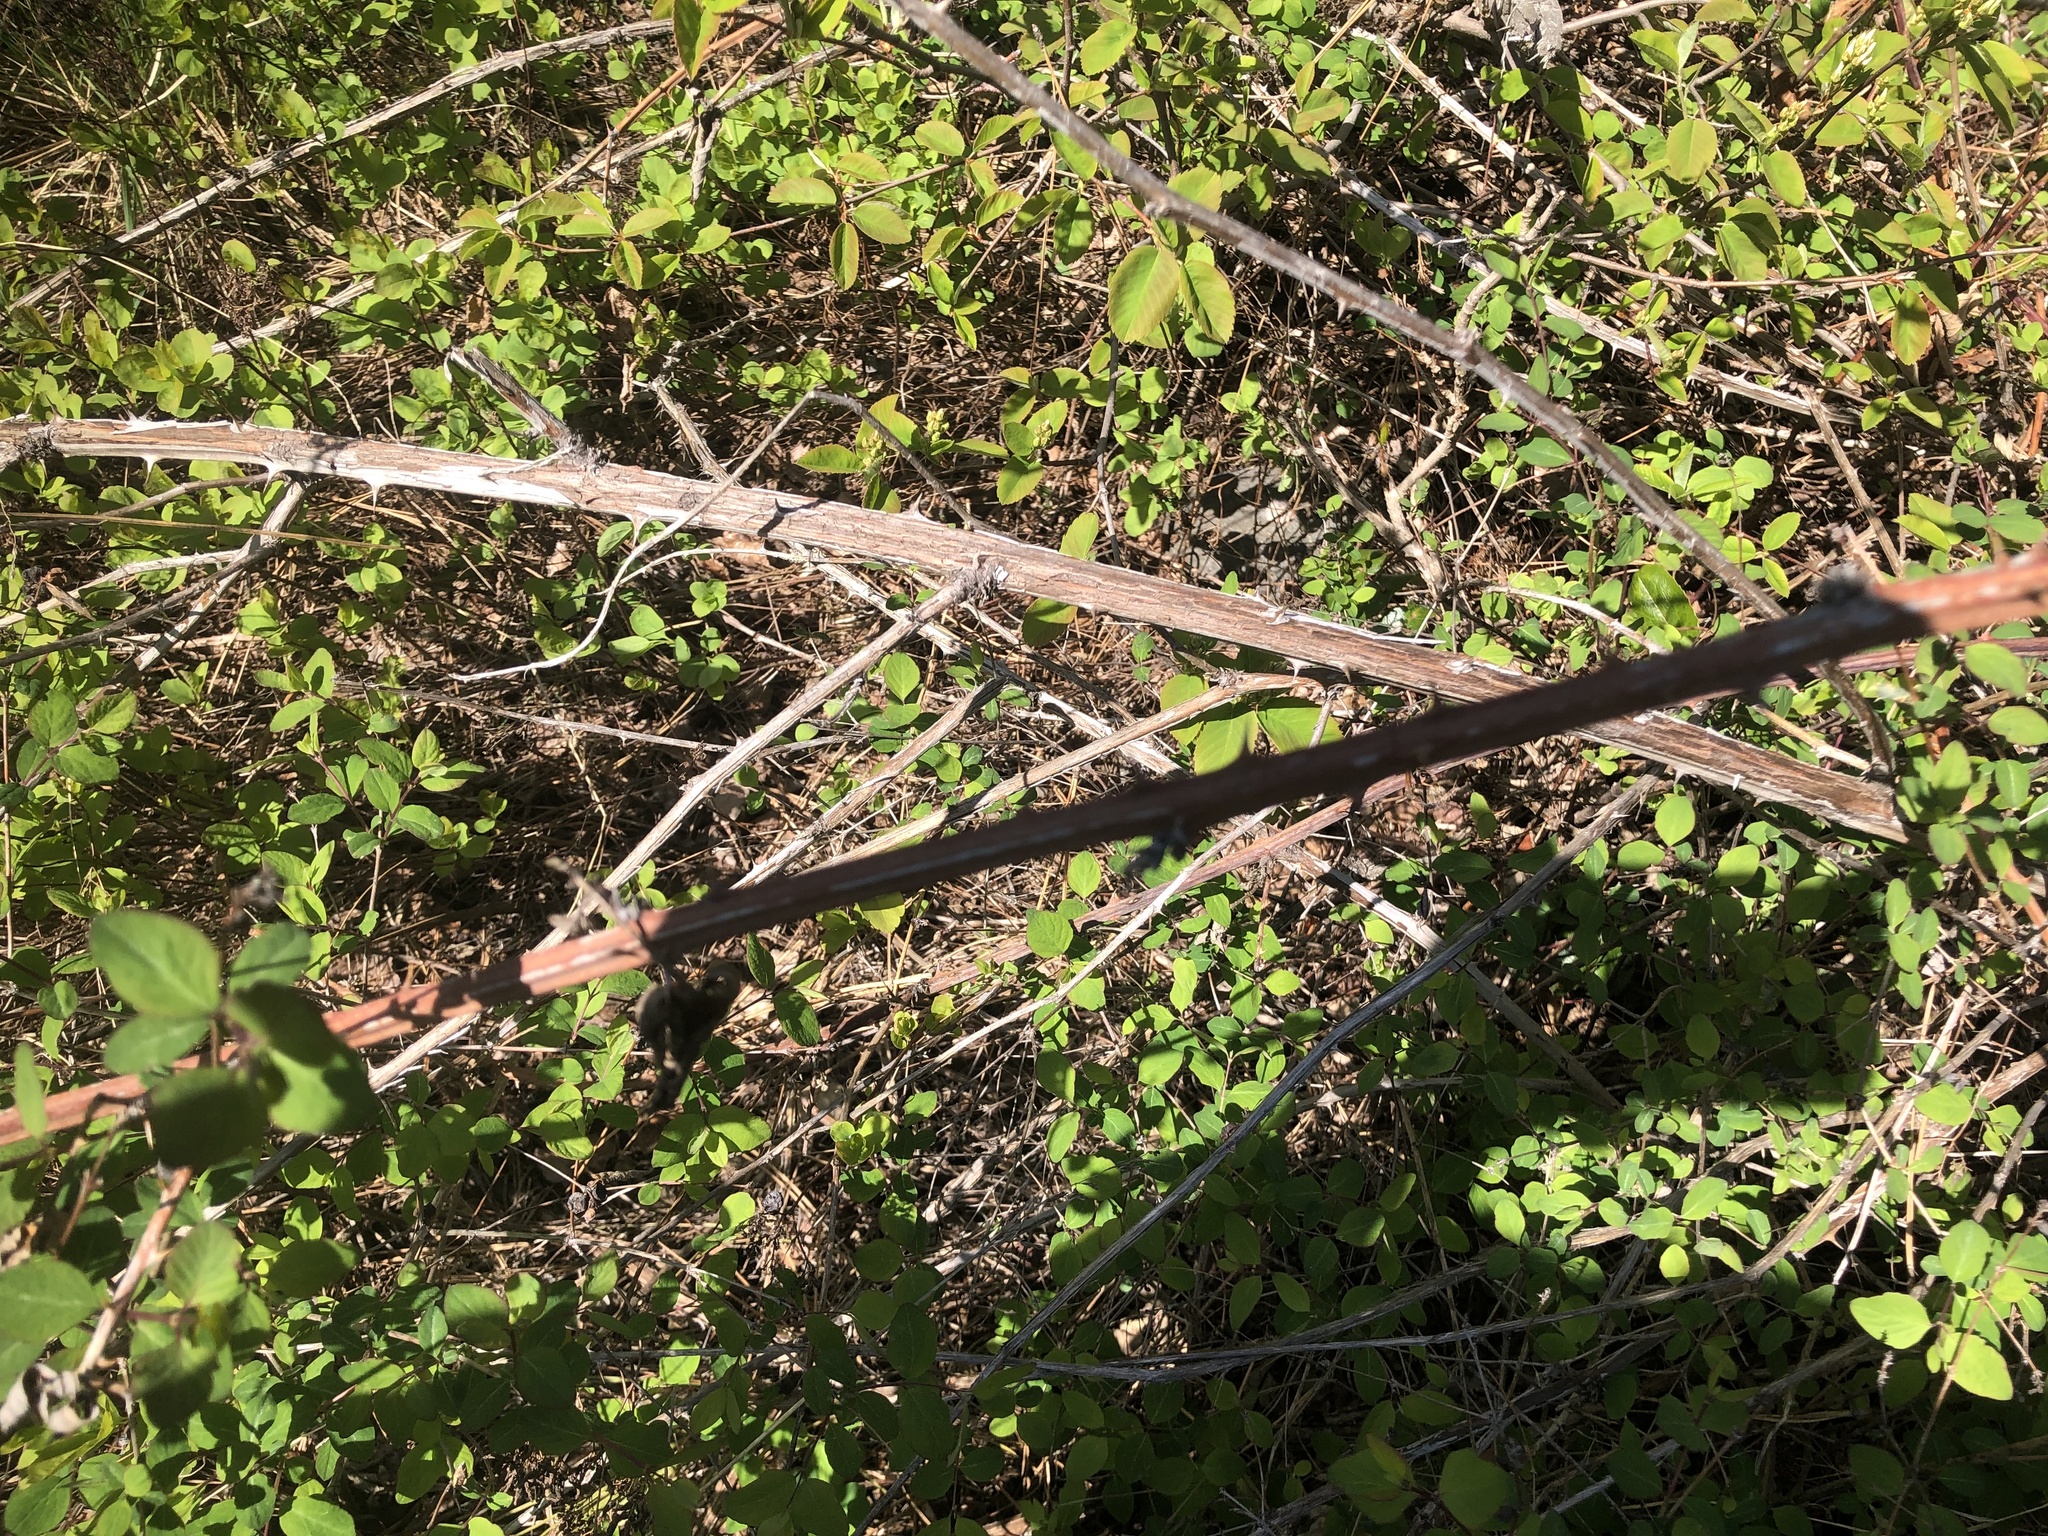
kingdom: Plantae
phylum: Tracheophyta
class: Magnoliopsida
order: Rosales
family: Rosaceae
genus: Rubus
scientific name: Rubus armeniacus
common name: Himalayan blackberry
